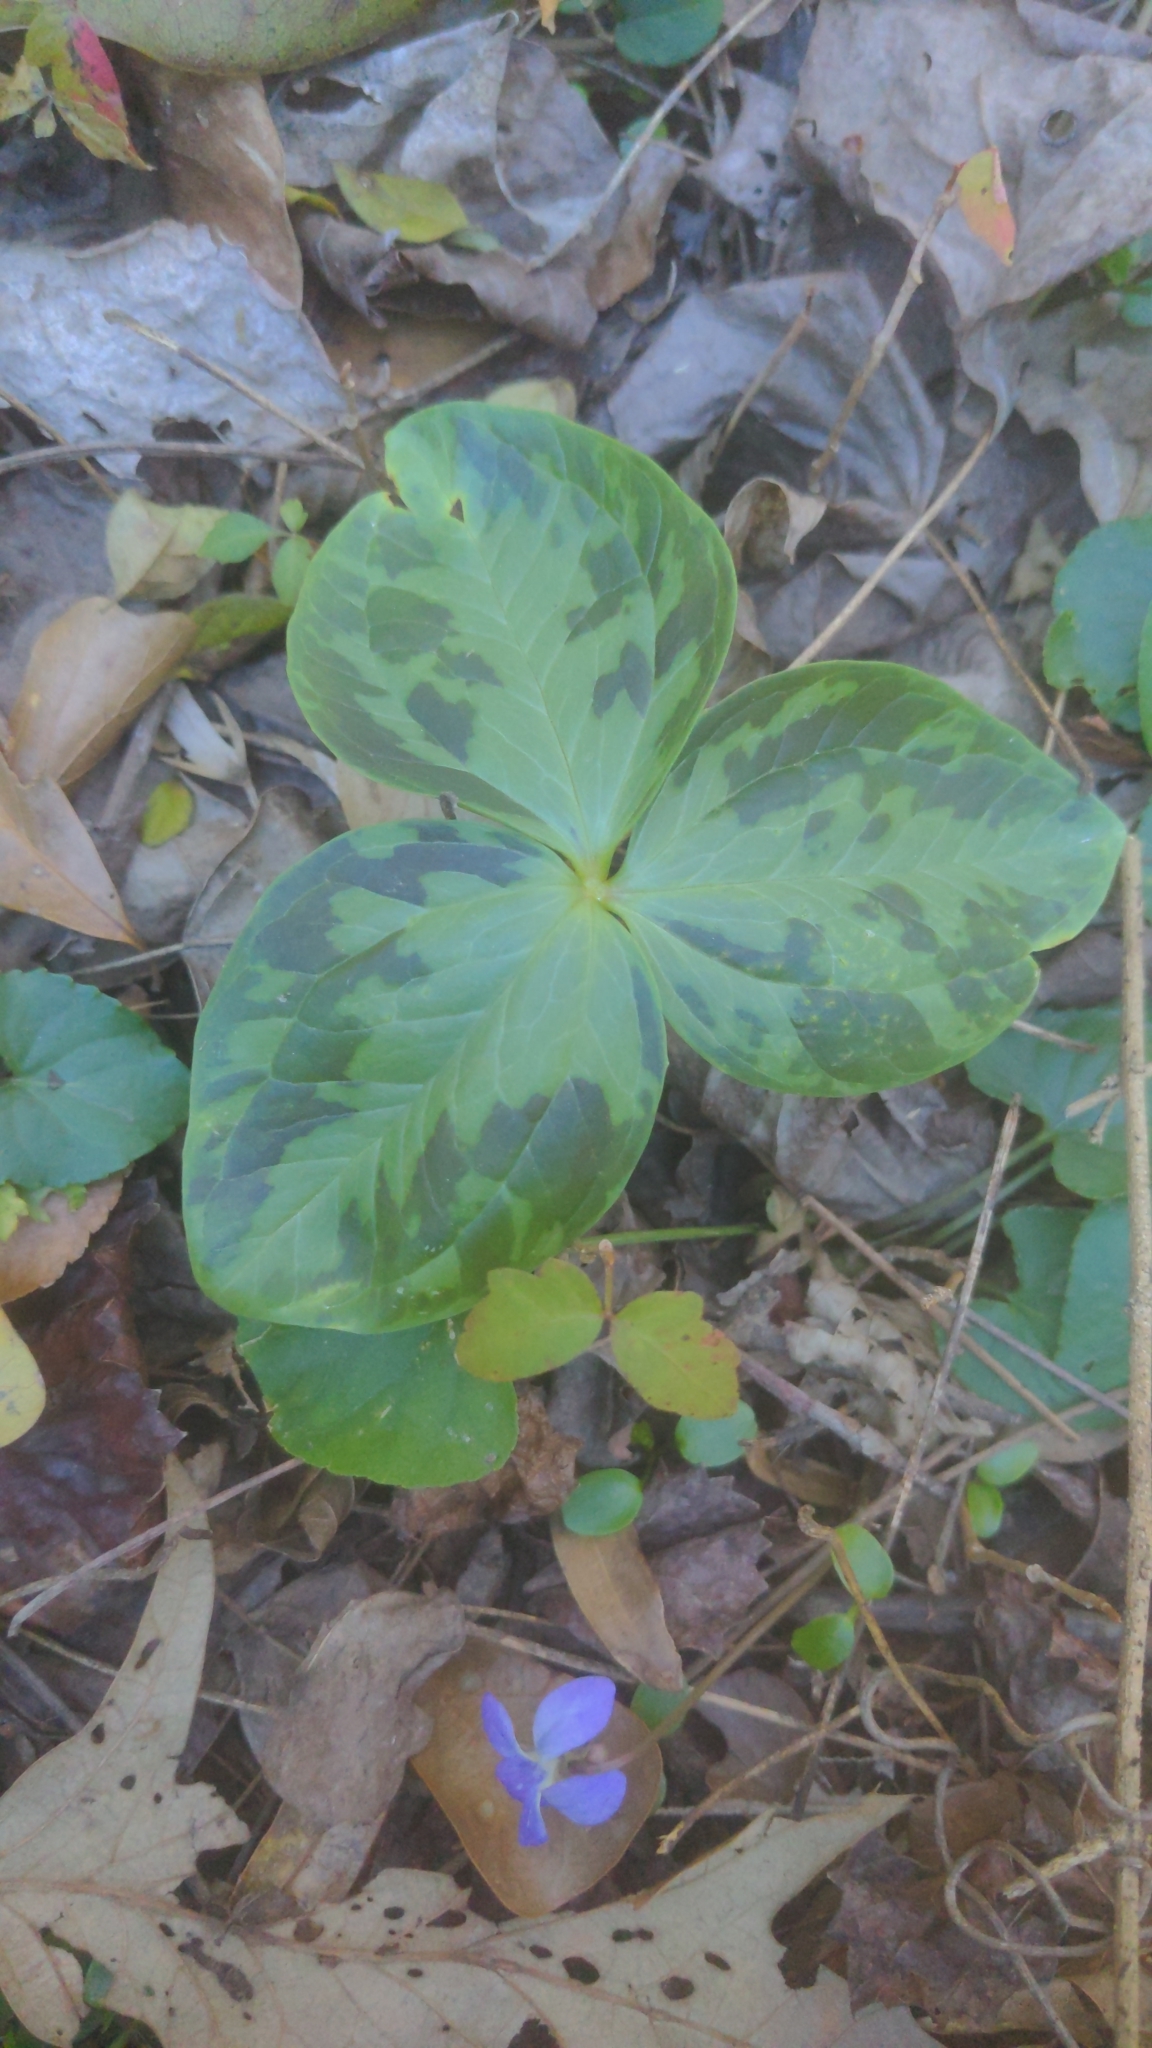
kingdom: Plantae
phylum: Tracheophyta
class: Liliopsida
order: Liliales
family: Melanthiaceae
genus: Trillium
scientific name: Trillium foetidissimum
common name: Mississippi river trillium
